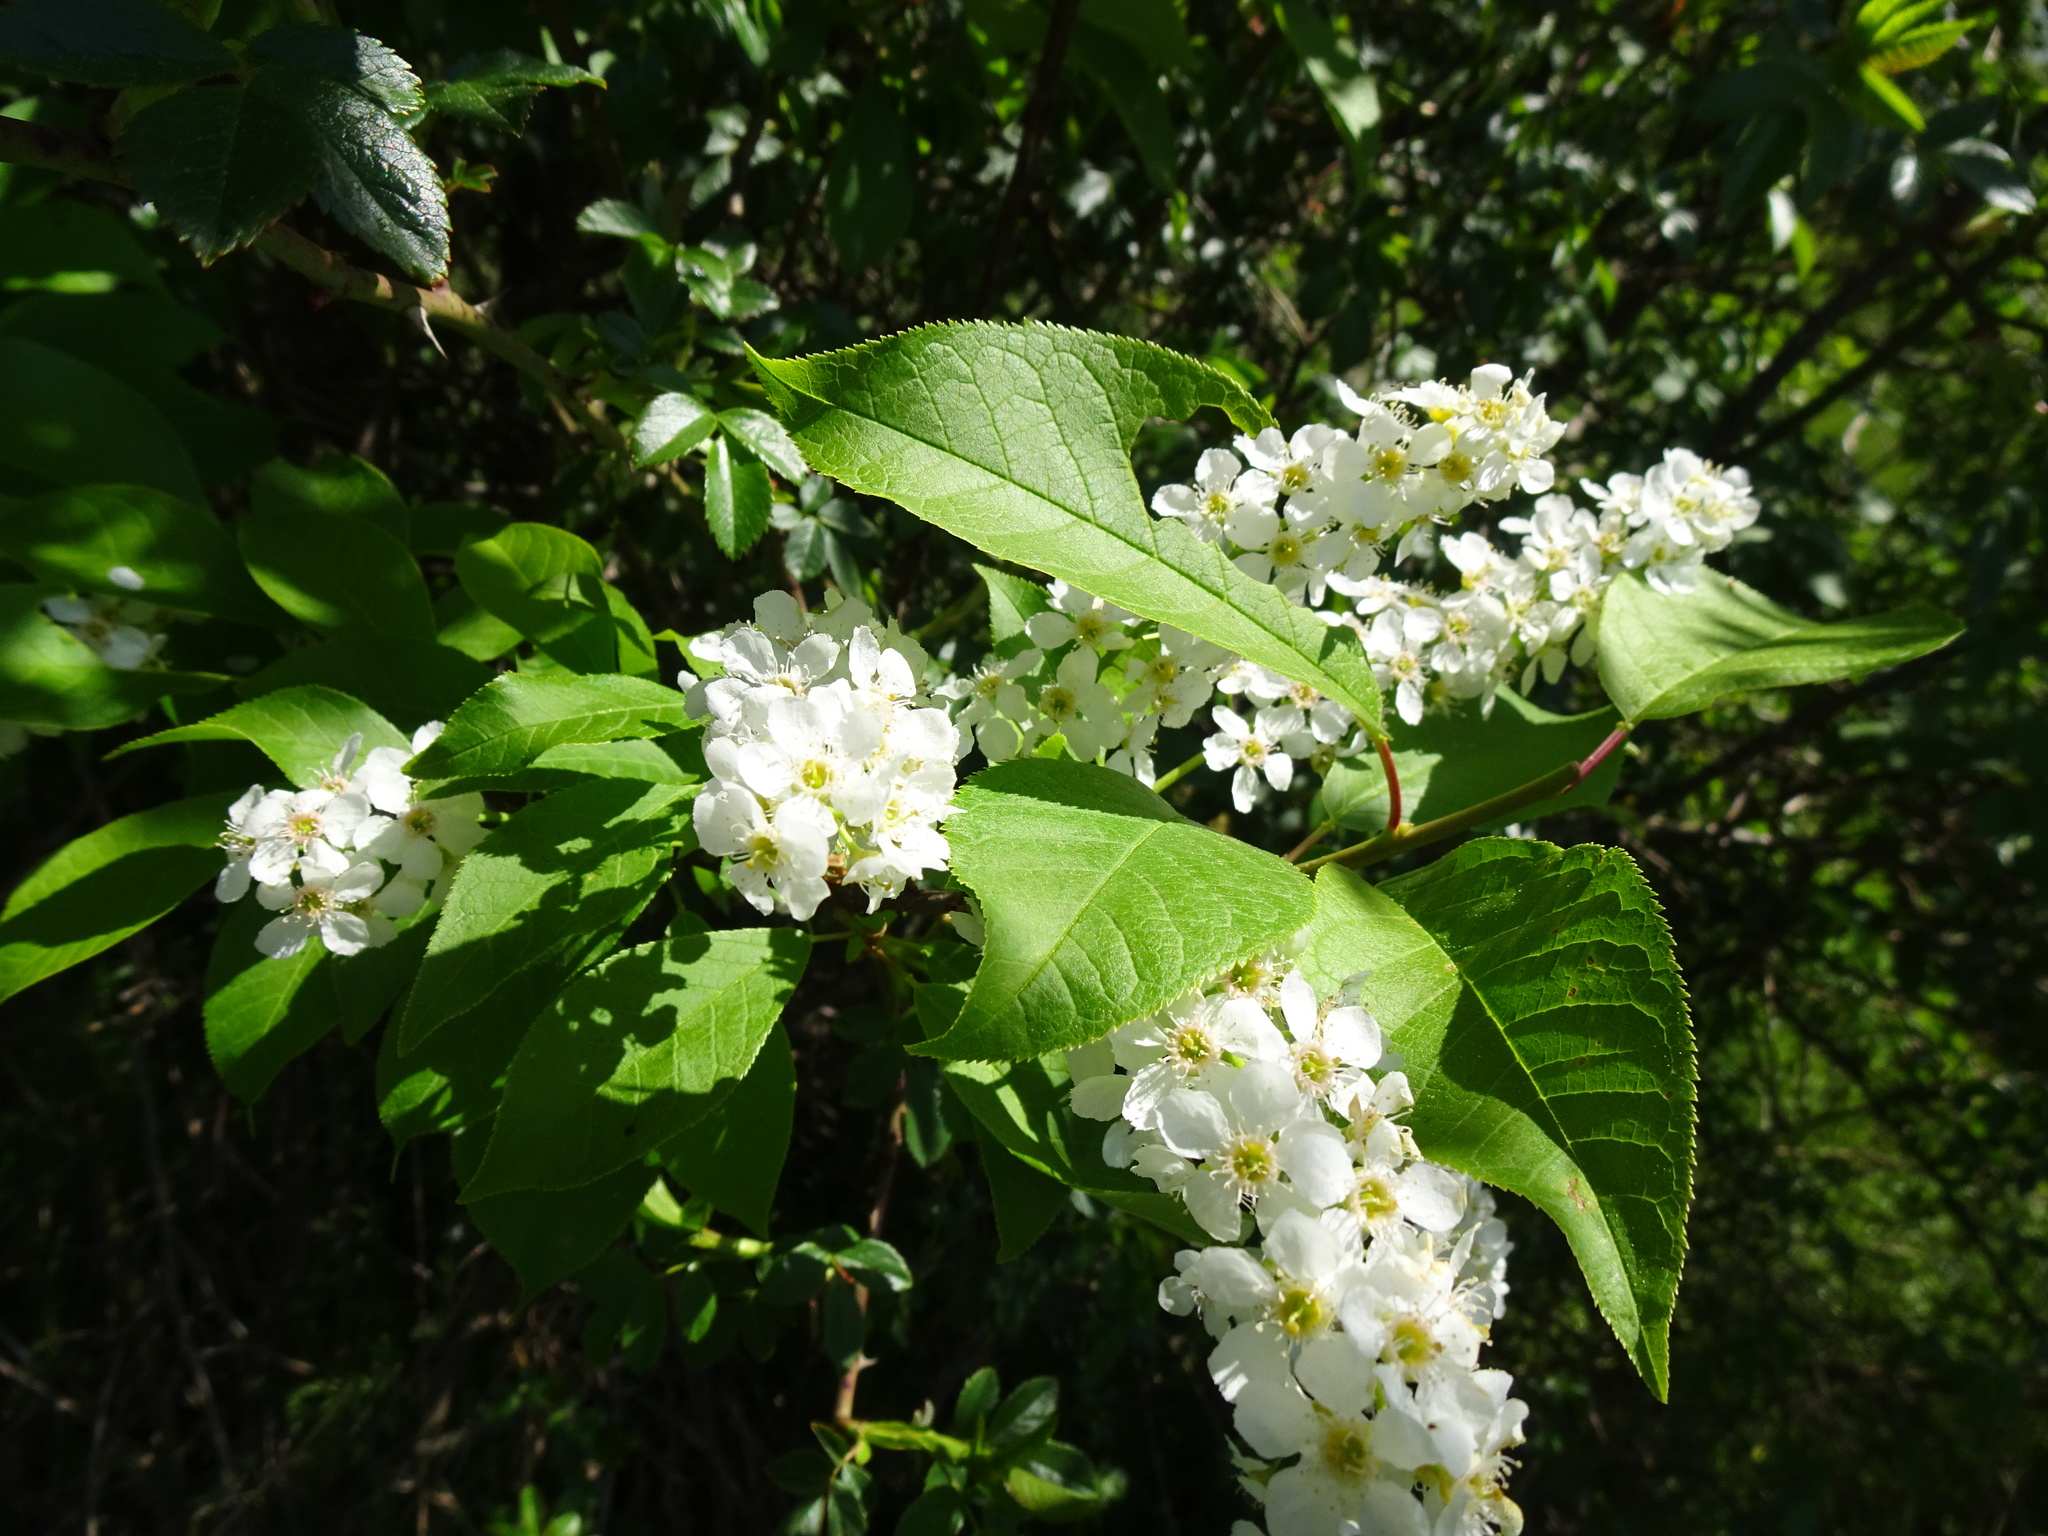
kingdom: Plantae
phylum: Tracheophyta
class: Magnoliopsida
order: Rosales
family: Rosaceae
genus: Prunus
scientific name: Prunus padus
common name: Bird cherry
